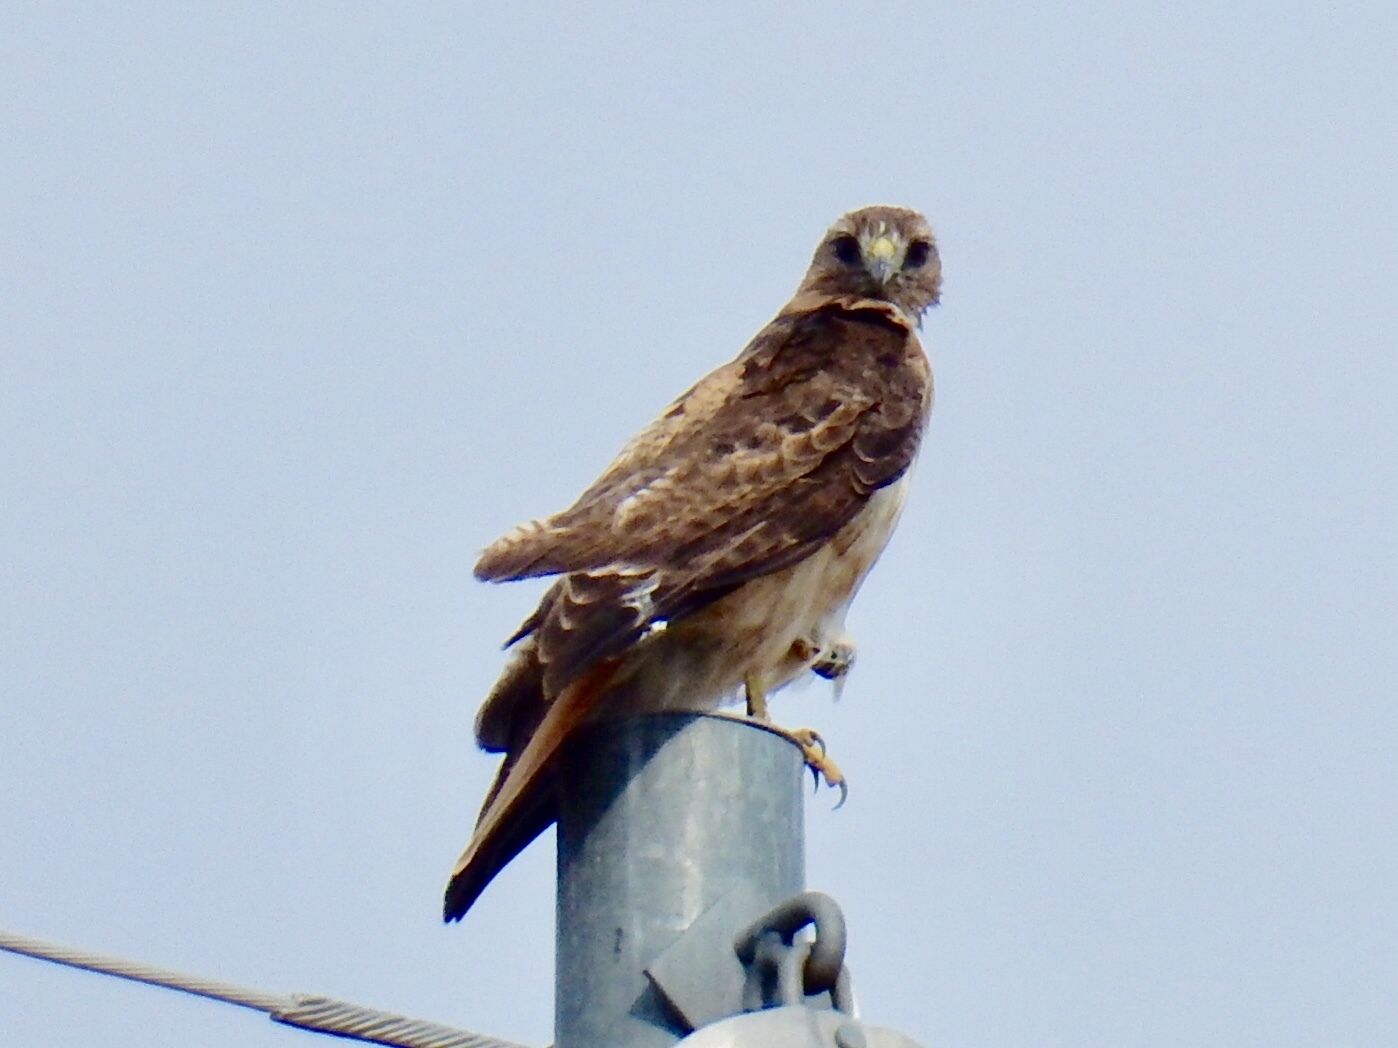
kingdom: Animalia
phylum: Chordata
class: Aves
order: Accipitriformes
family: Accipitridae
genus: Buteo
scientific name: Buteo jamaicensis
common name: Red-tailed hawk
